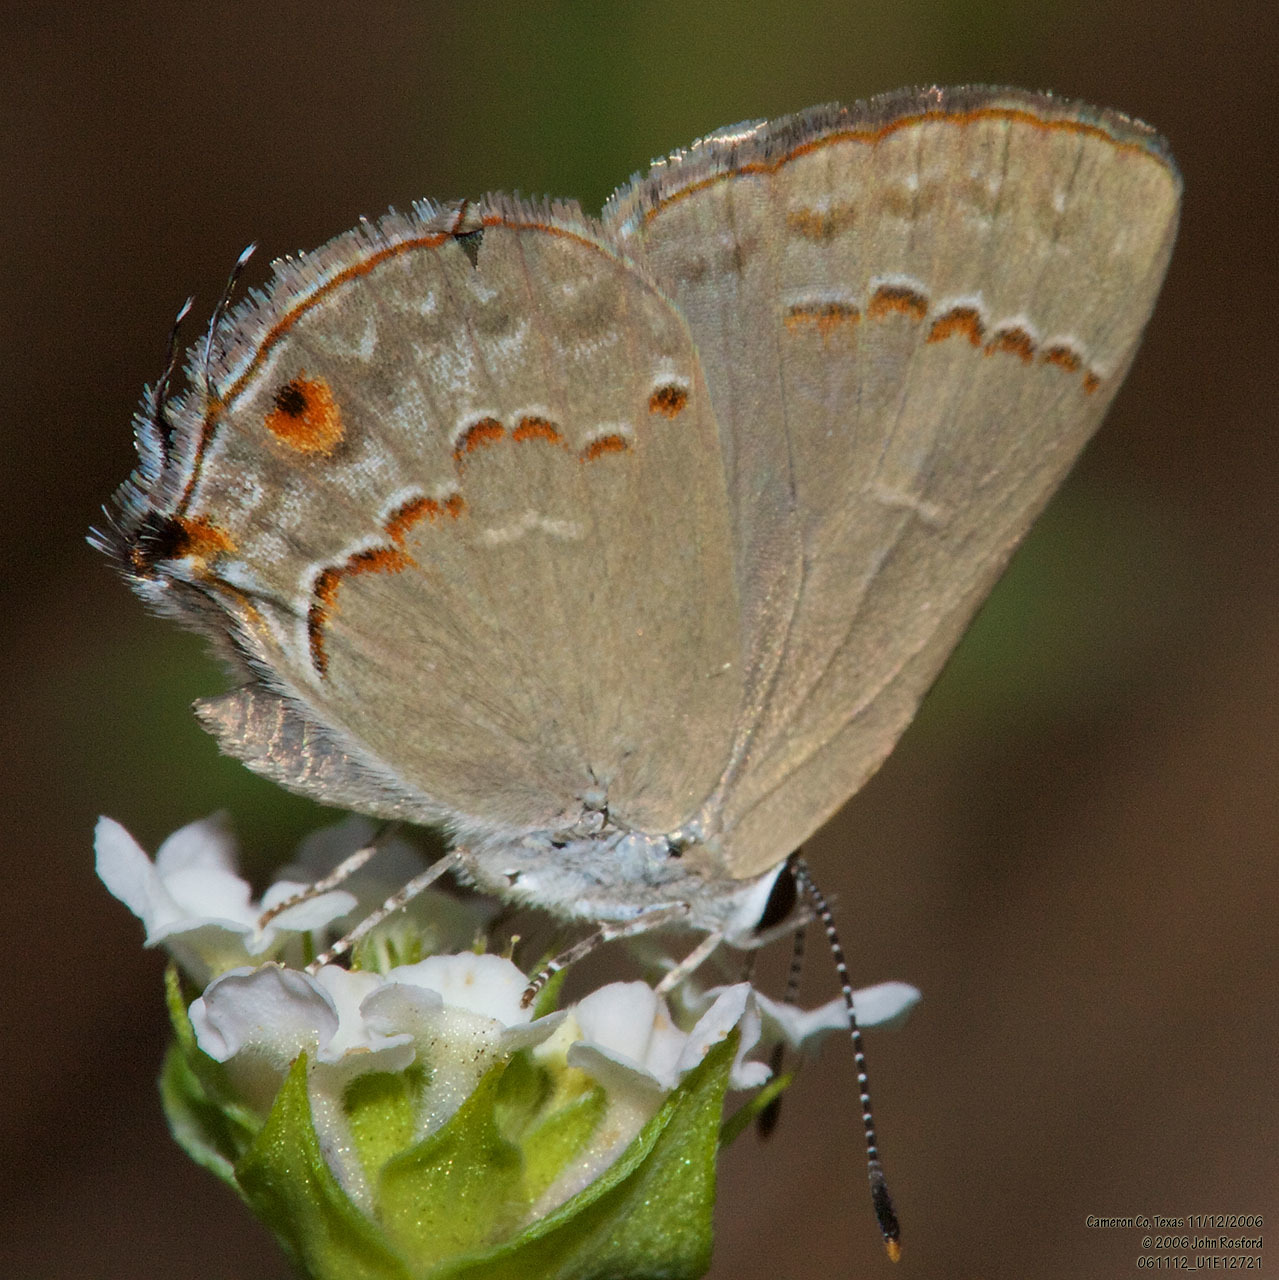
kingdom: Animalia
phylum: Arthropoda
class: Insecta
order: Lepidoptera
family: Lycaenidae
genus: Thecla
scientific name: Thecla rufofusca
